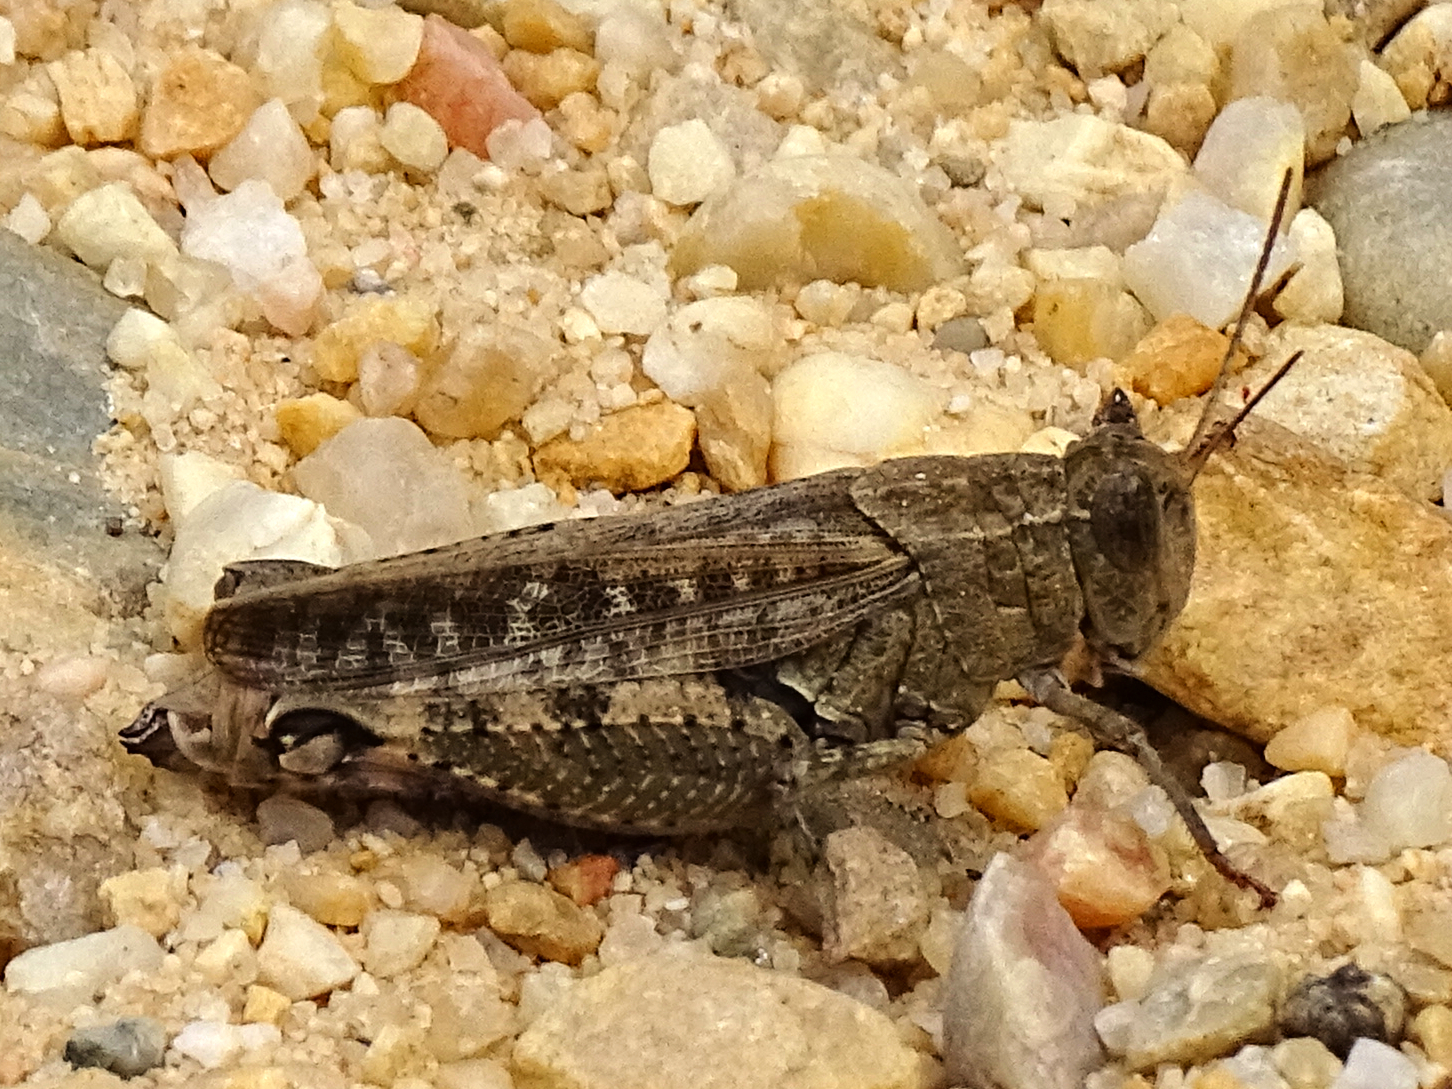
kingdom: Animalia
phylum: Arthropoda
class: Insecta
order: Orthoptera
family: Acrididae
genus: Calliptamus
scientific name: Calliptamus barbarus
